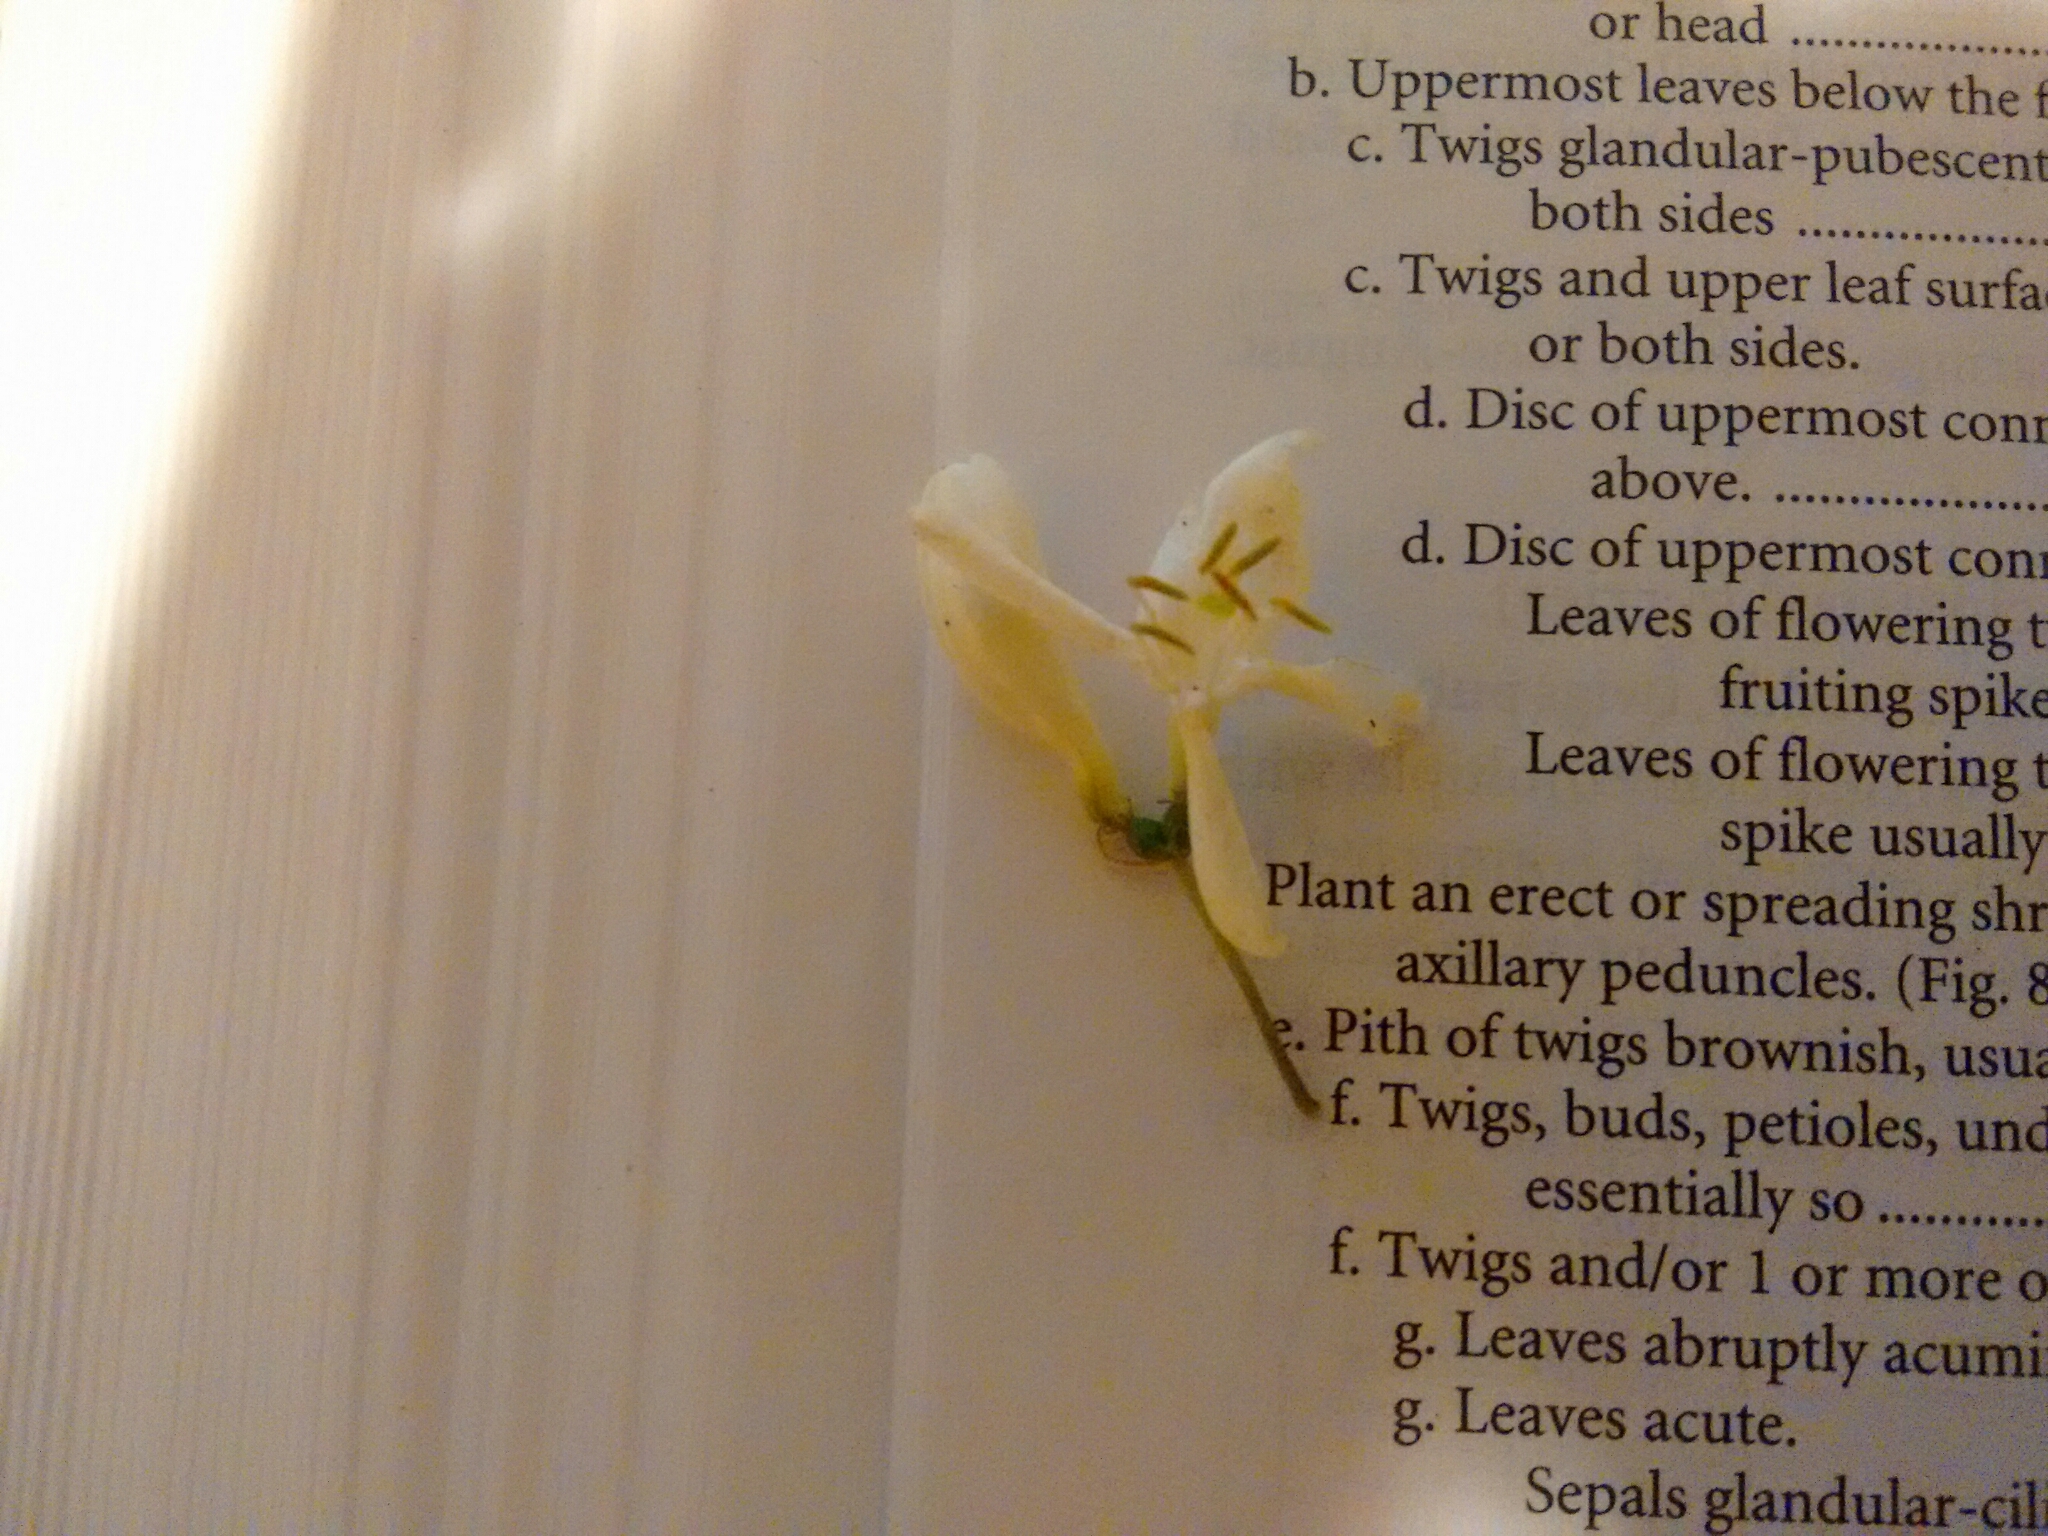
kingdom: Plantae
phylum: Tracheophyta
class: Magnoliopsida
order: Dipsacales
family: Caprifoliaceae
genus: Lonicera
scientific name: Lonicera
